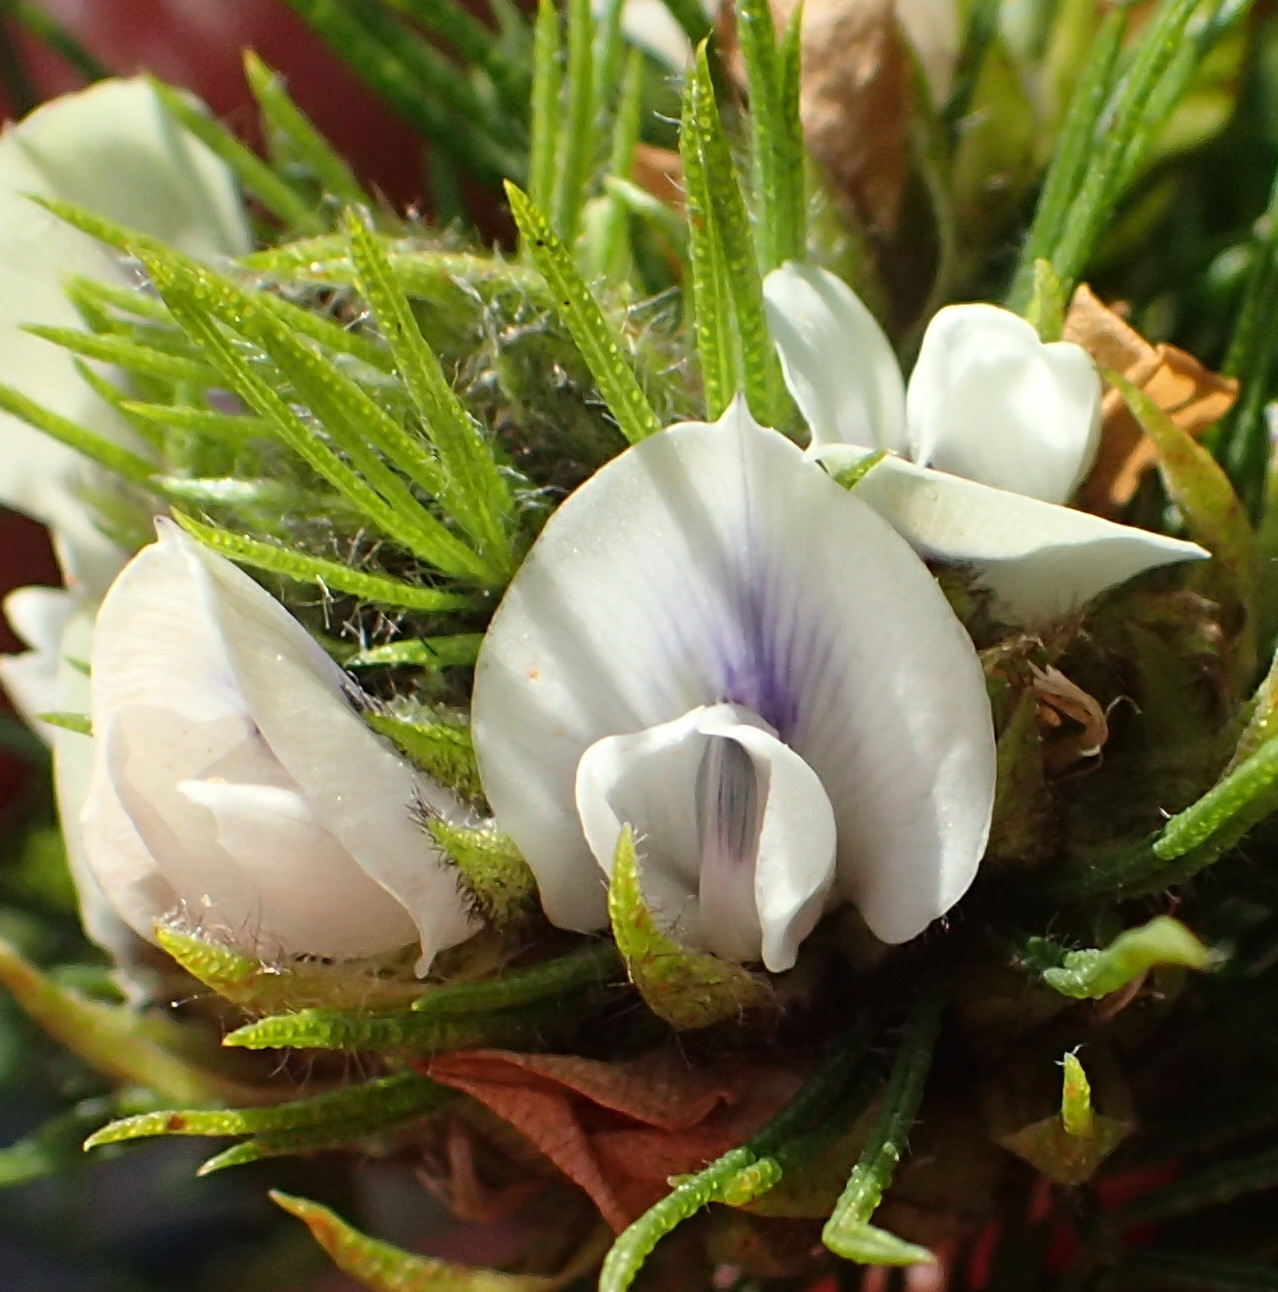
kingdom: Plantae
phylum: Tracheophyta
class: Magnoliopsida
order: Fabales
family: Fabaceae
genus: Psoralea
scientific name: Psoralea floccosa
